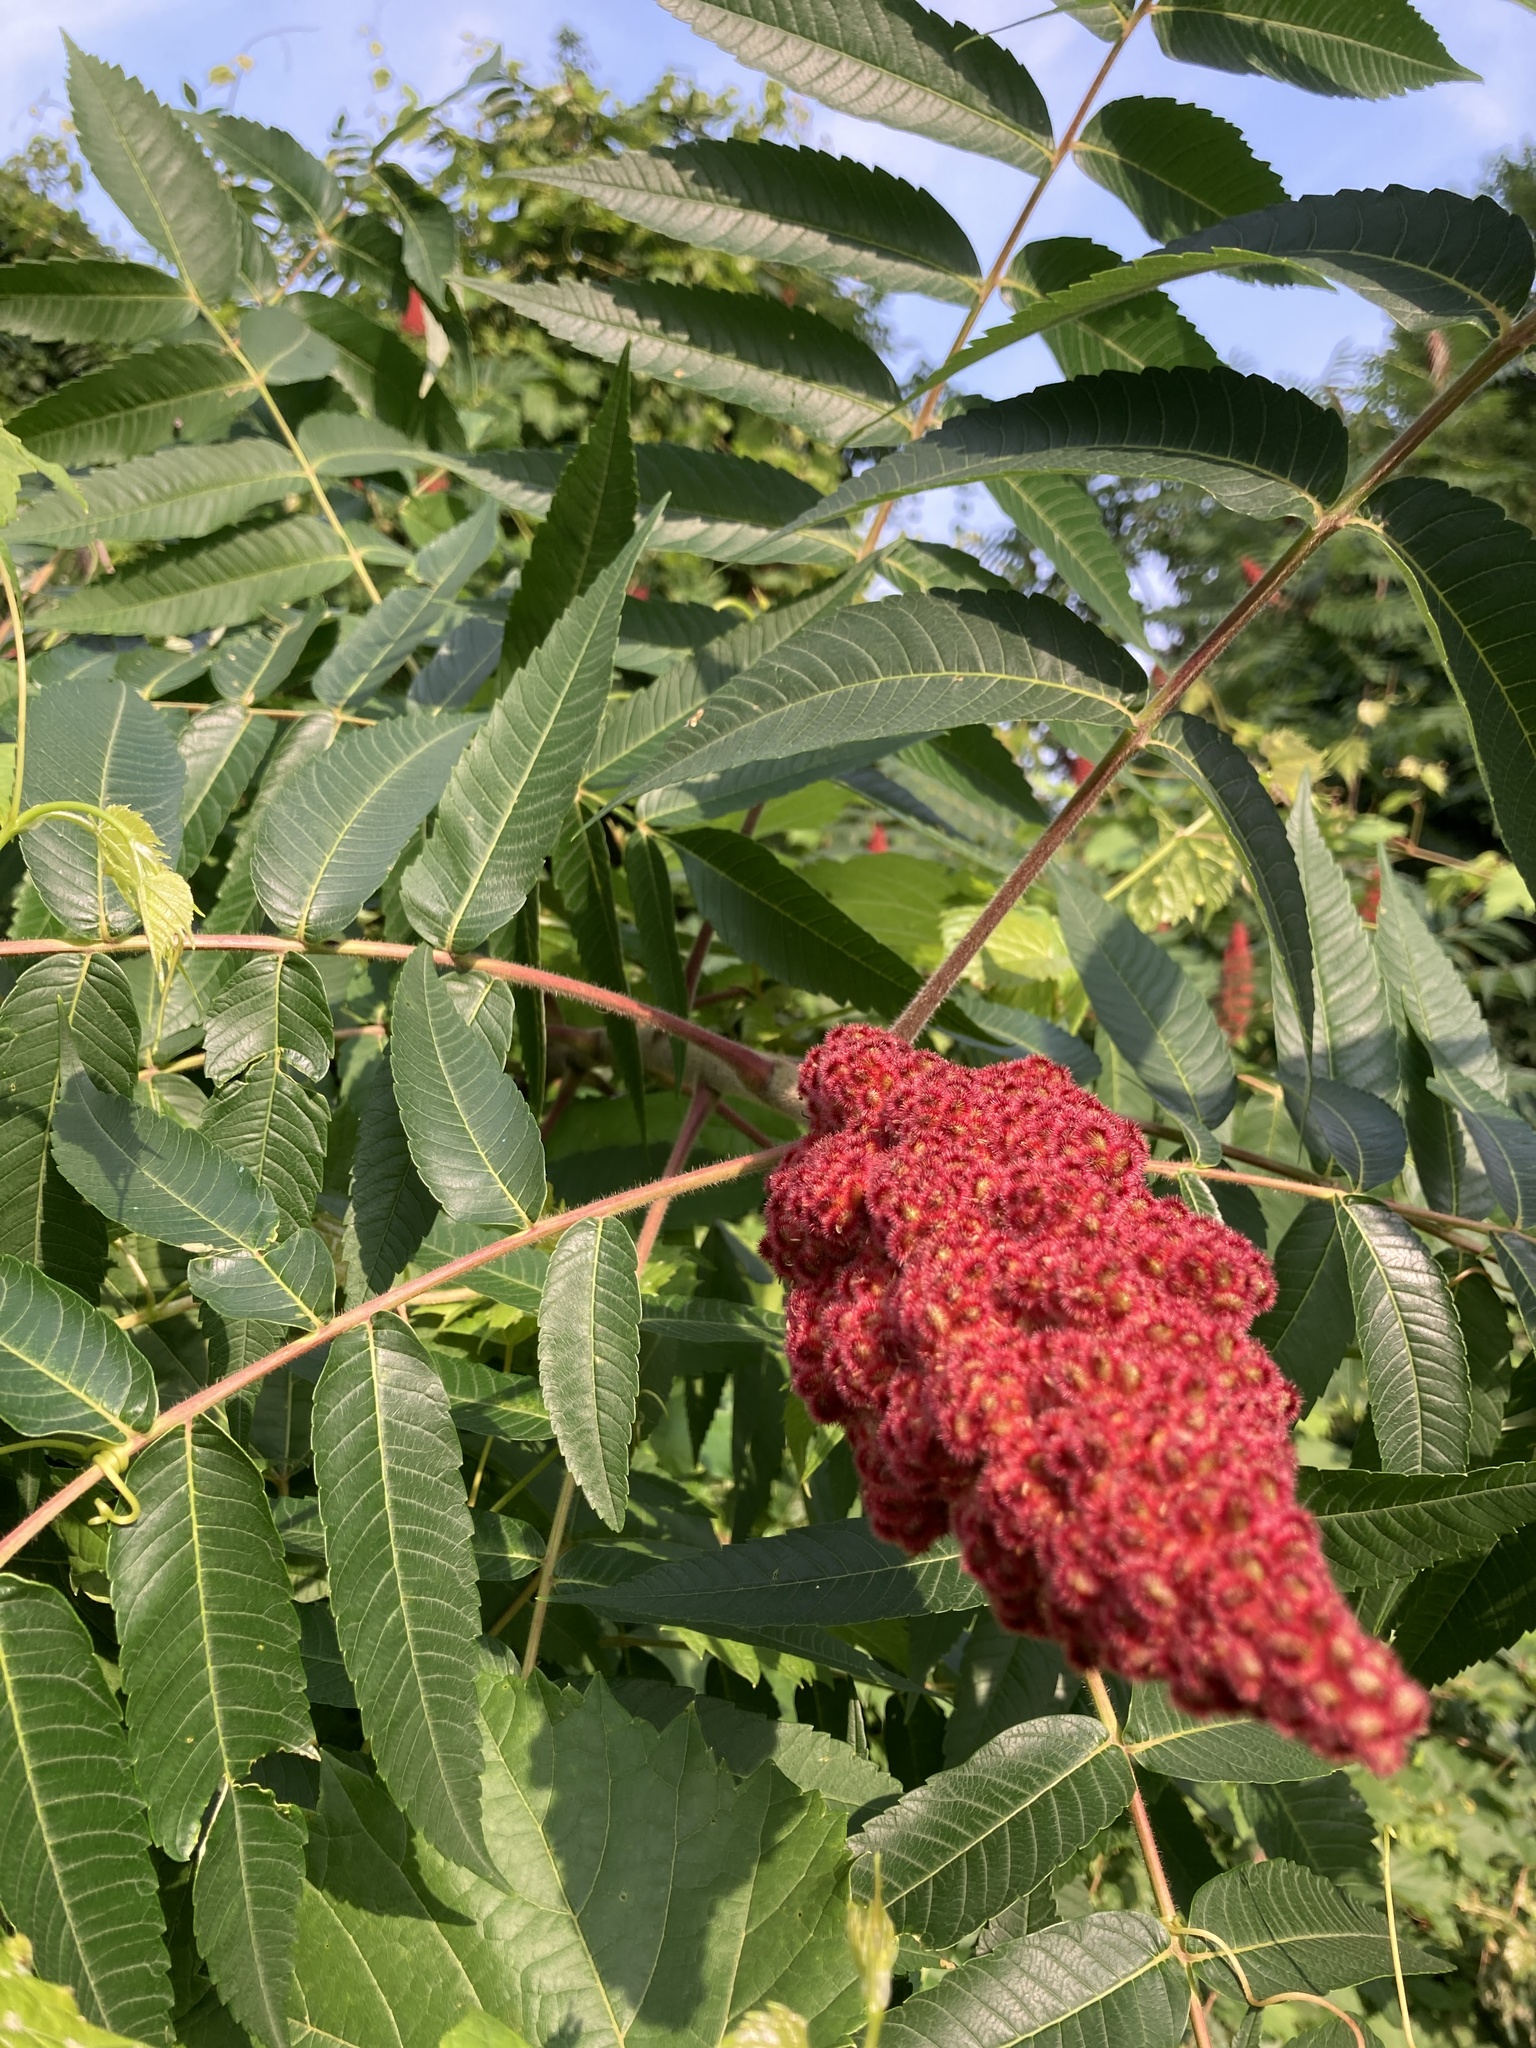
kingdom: Plantae
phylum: Tracheophyta
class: Magnoliopsida
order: Sapindales
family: Anacardiaceae
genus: Rhus
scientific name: Rhus typhina
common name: Staghorn sumac
